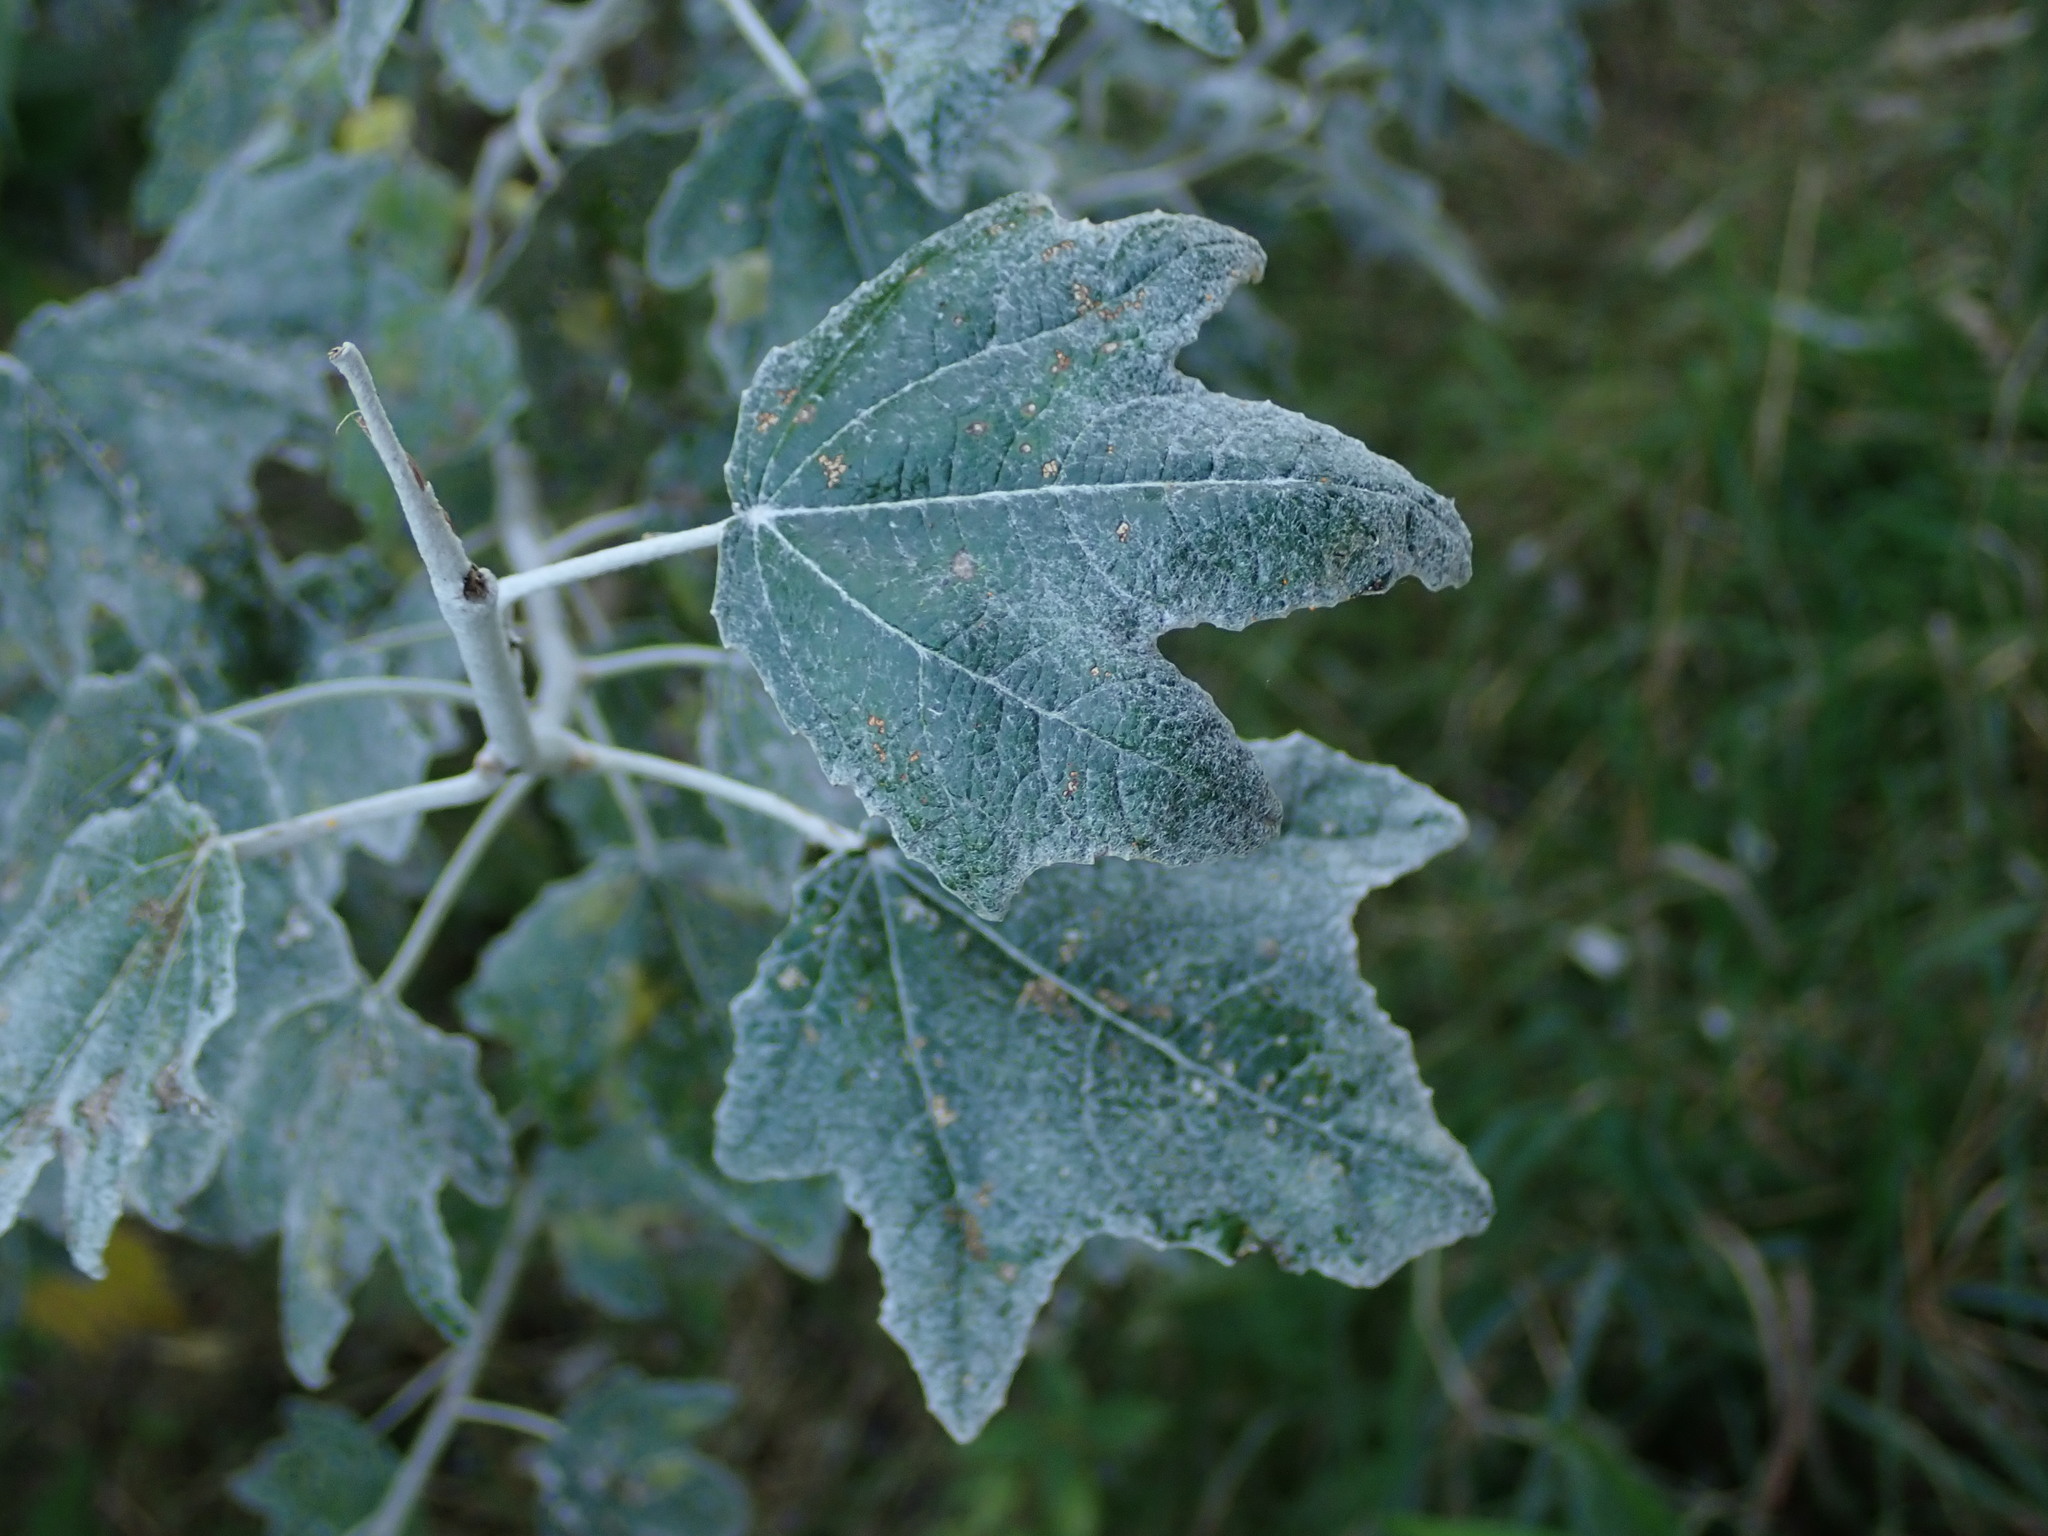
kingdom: Plantae
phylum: Tracheophyta
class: Magnoliopsida
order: Malpighiales
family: Salicaceae
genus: Populus
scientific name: Populus alba
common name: White poplar
